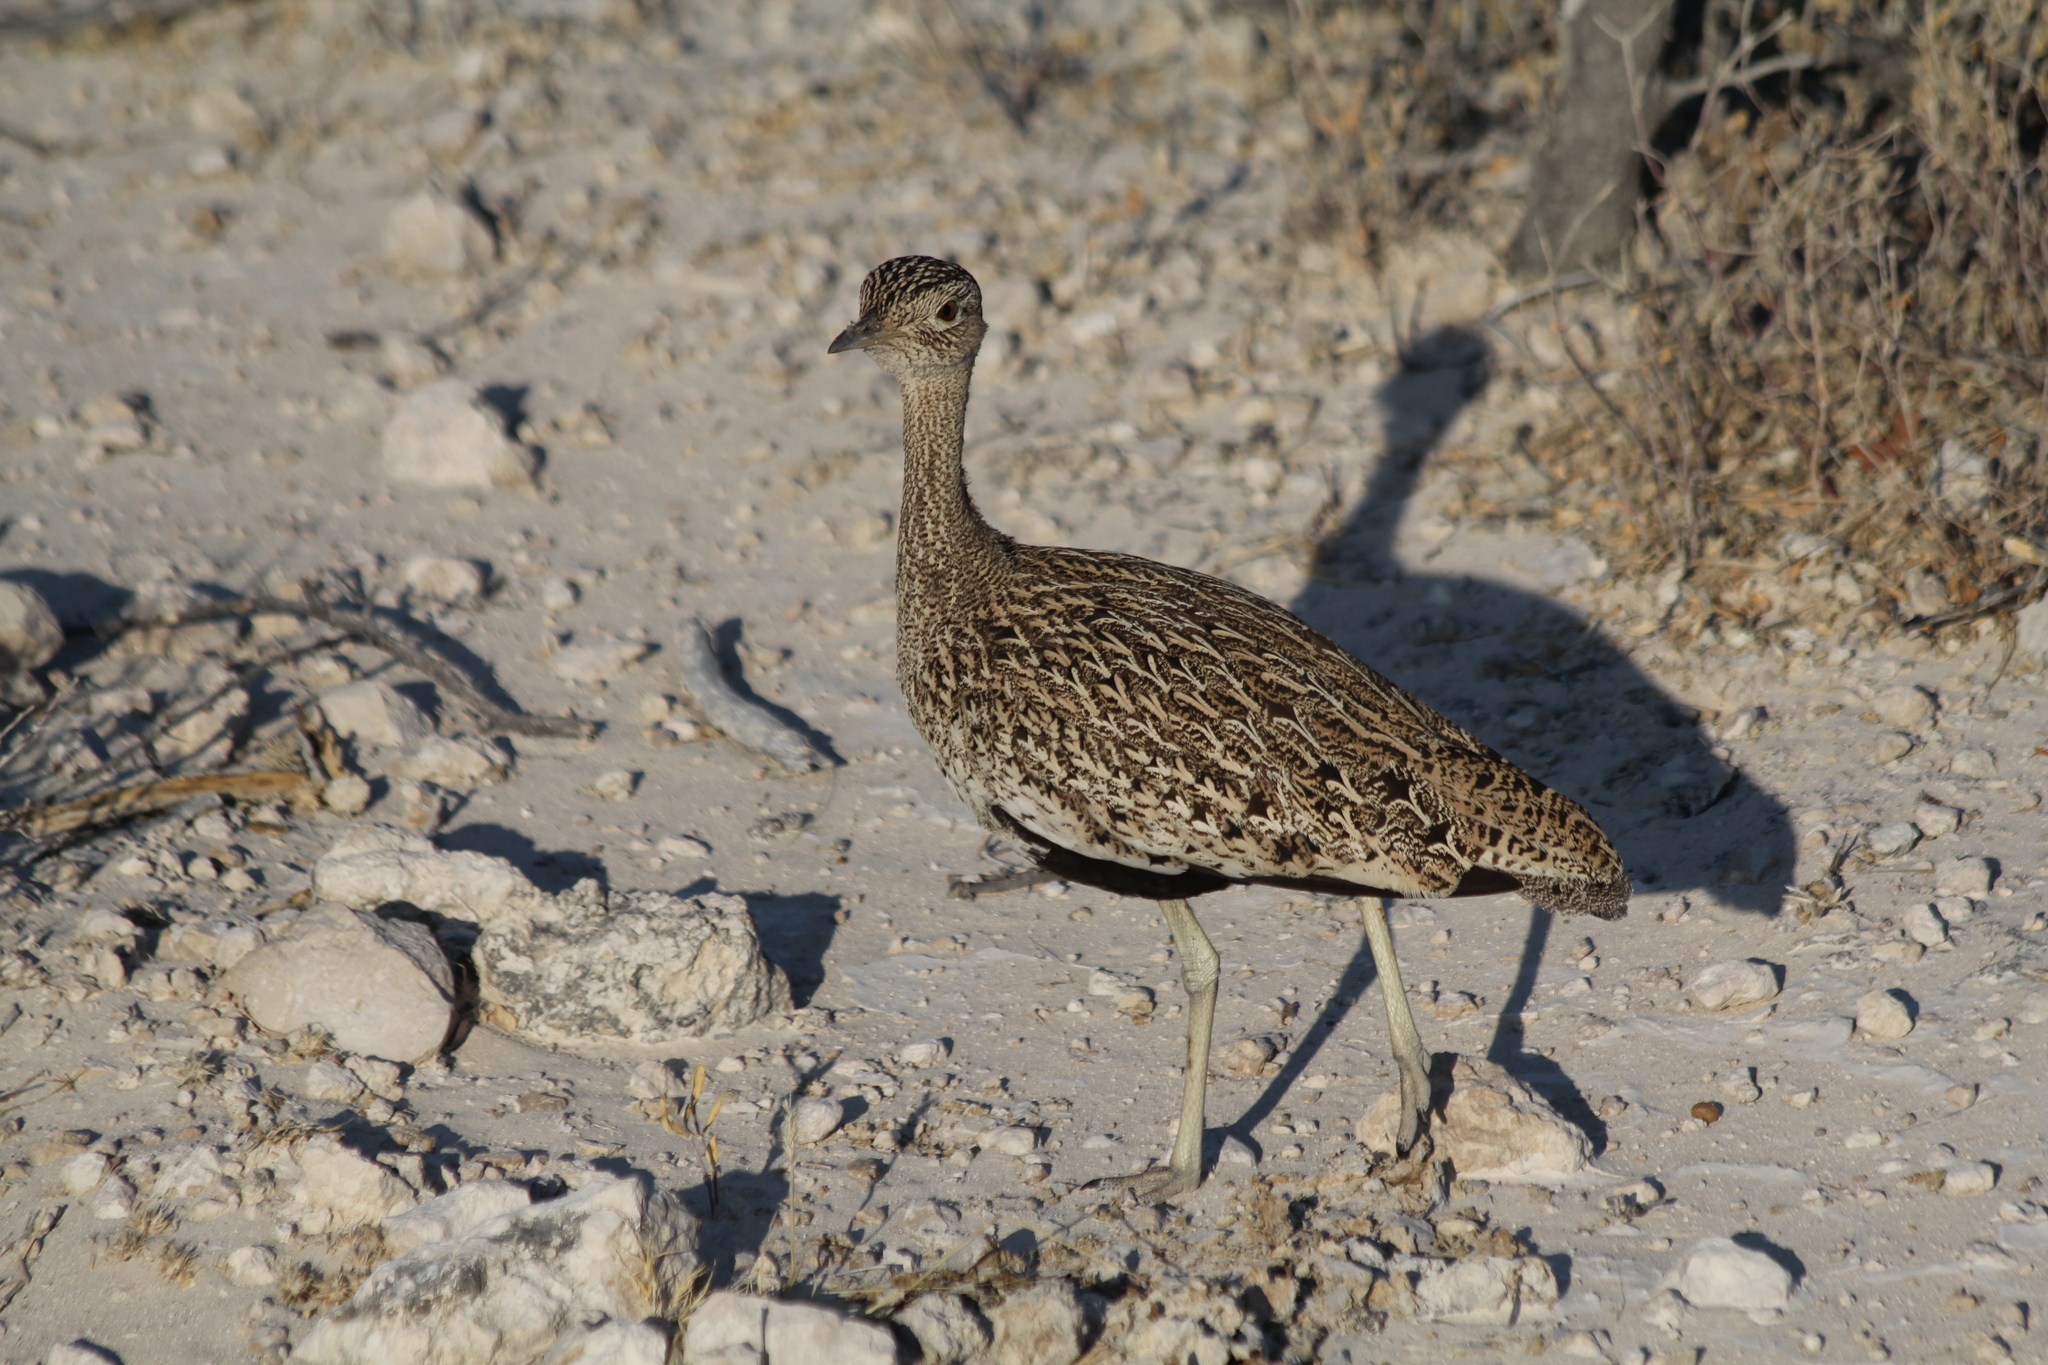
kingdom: Animalia
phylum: Chordata
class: Aves
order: Otidiformes
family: Otididae
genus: Lophotis
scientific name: Lophotis ruficrista
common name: Red-crested korhaan
